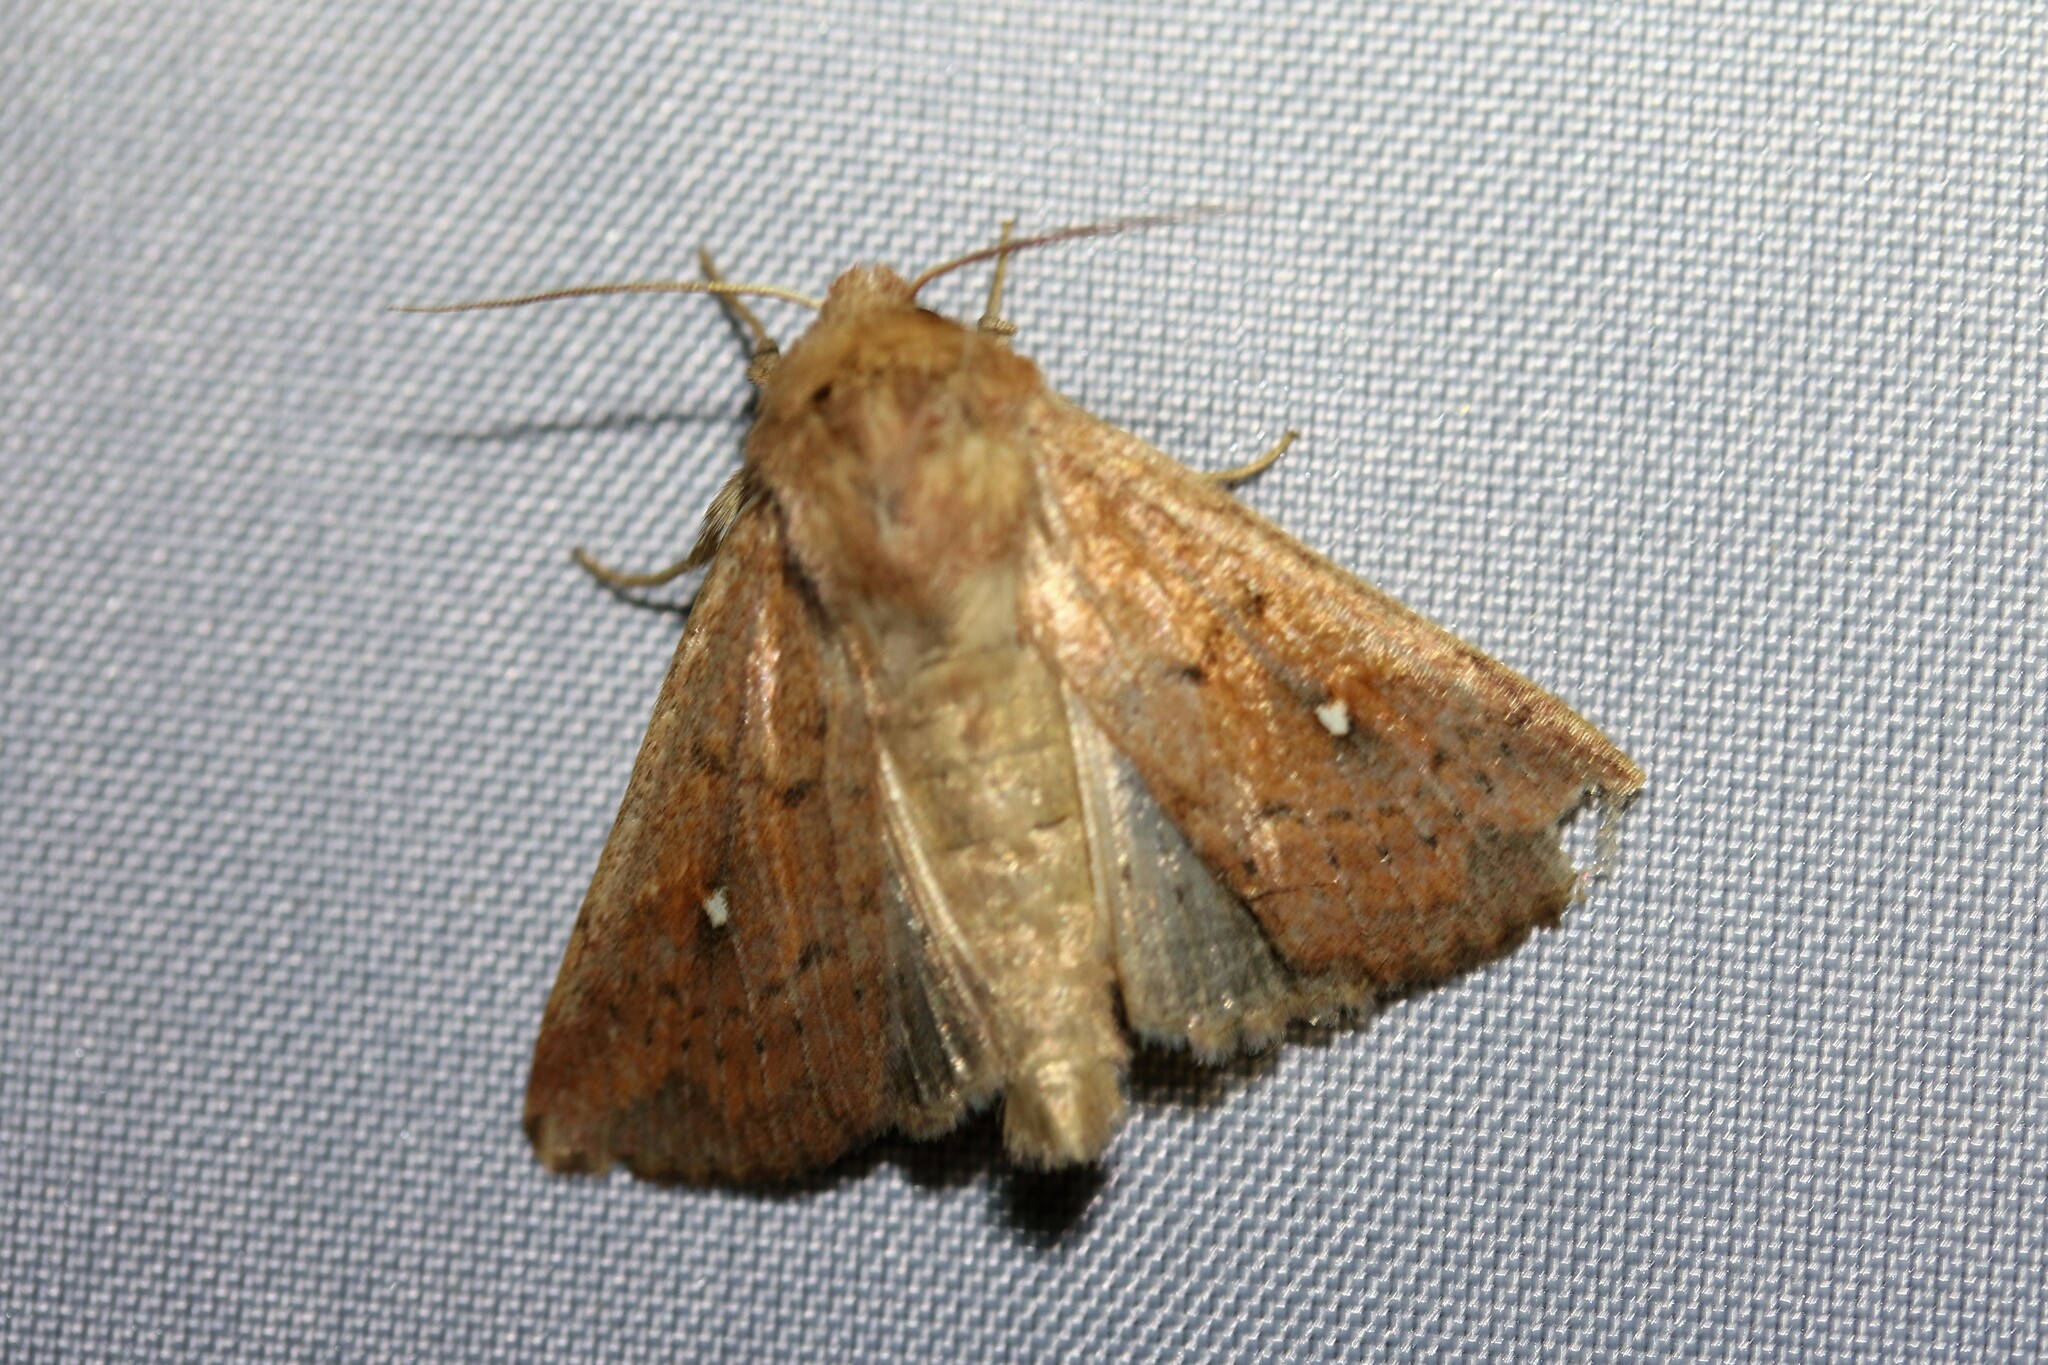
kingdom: Animalia
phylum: Arthropoda
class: Insecta
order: Lepidoptera
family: Noctuidae
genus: Mythimna
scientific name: Mythimna albipuncta
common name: White-point
